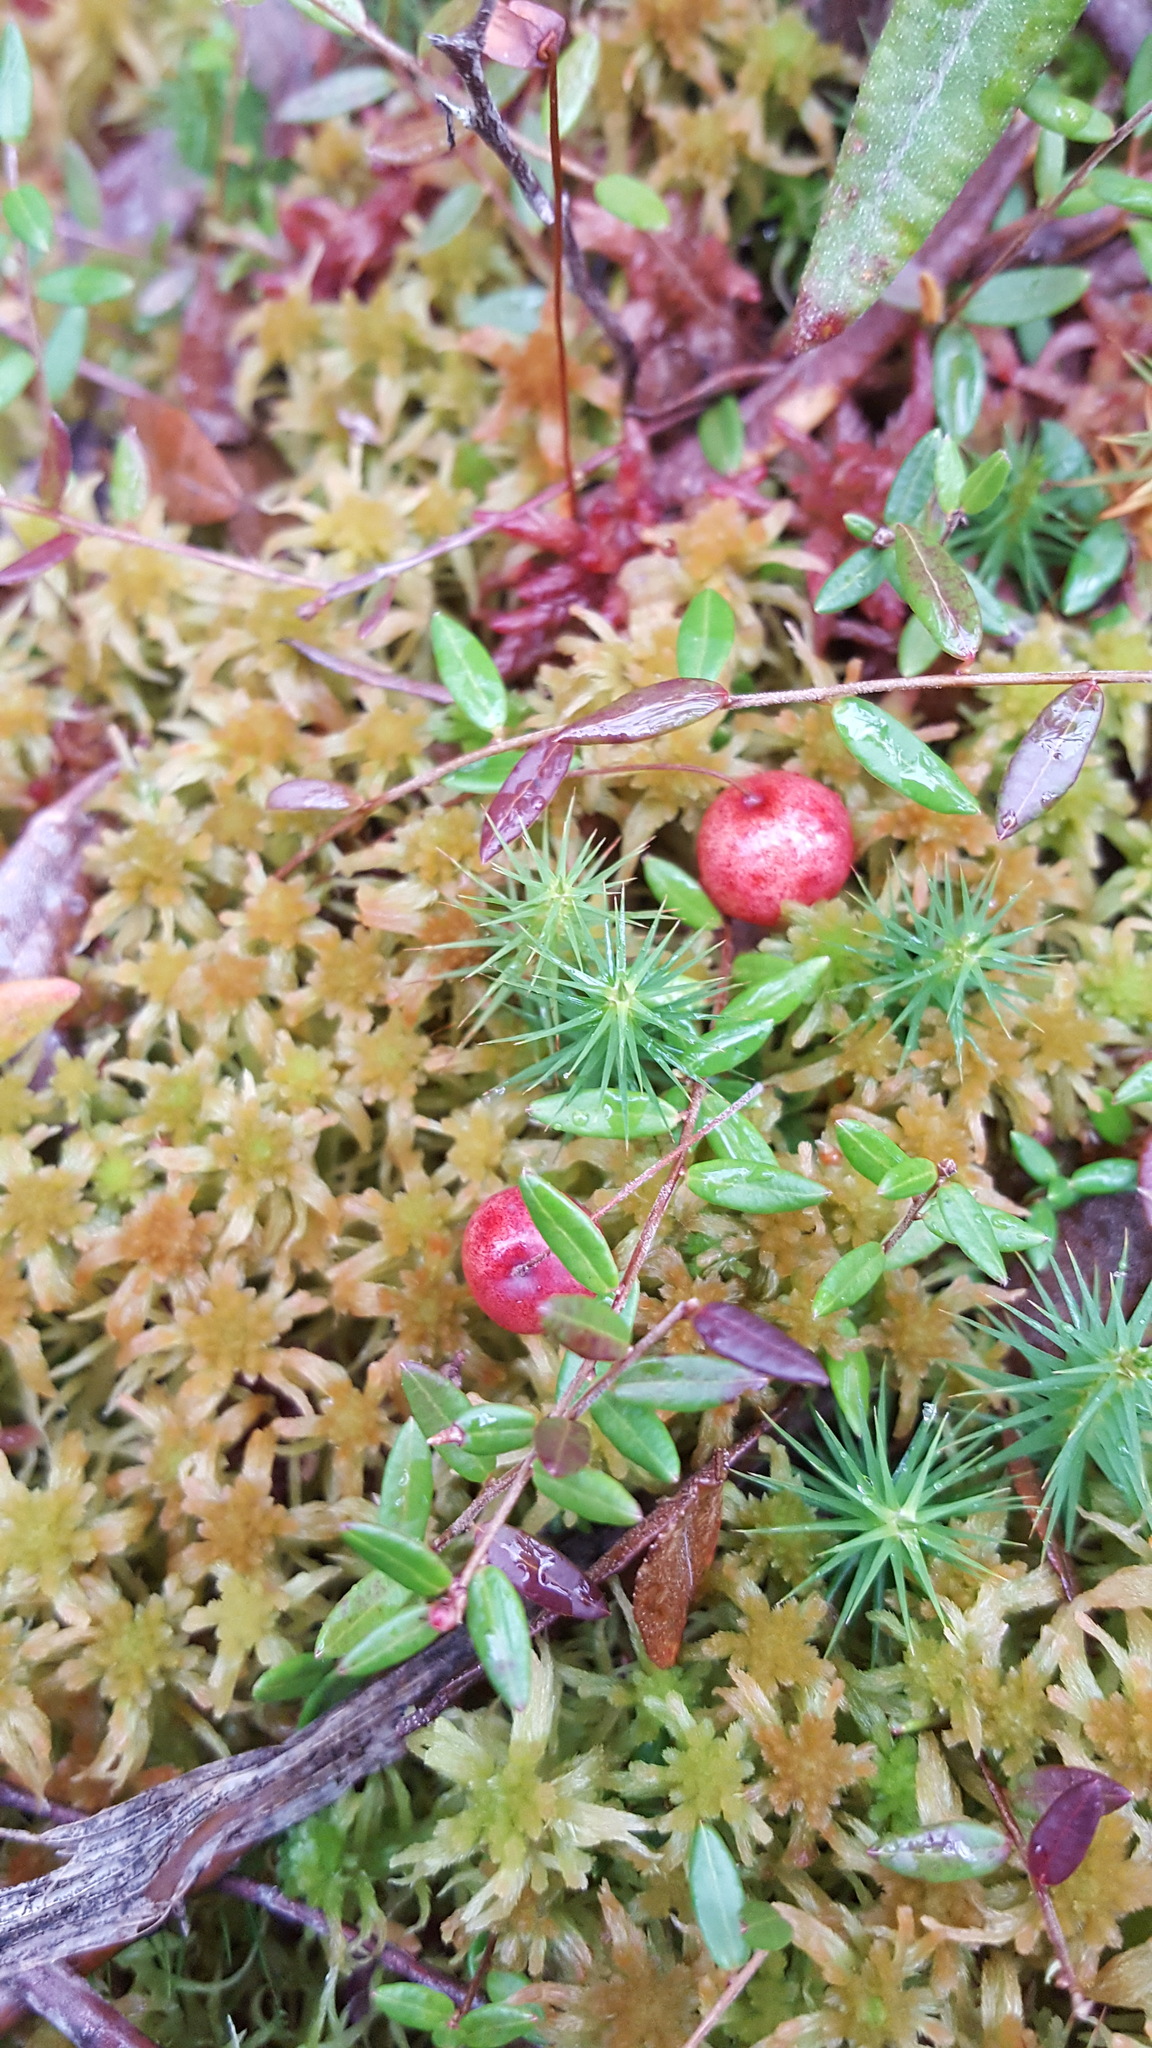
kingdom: Plantae
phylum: Tracheophyta
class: Magnoliopsida
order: Ericales
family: Ericaceae
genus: Vaccinium
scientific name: Vaccinium oxycoccos
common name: Cranberry
